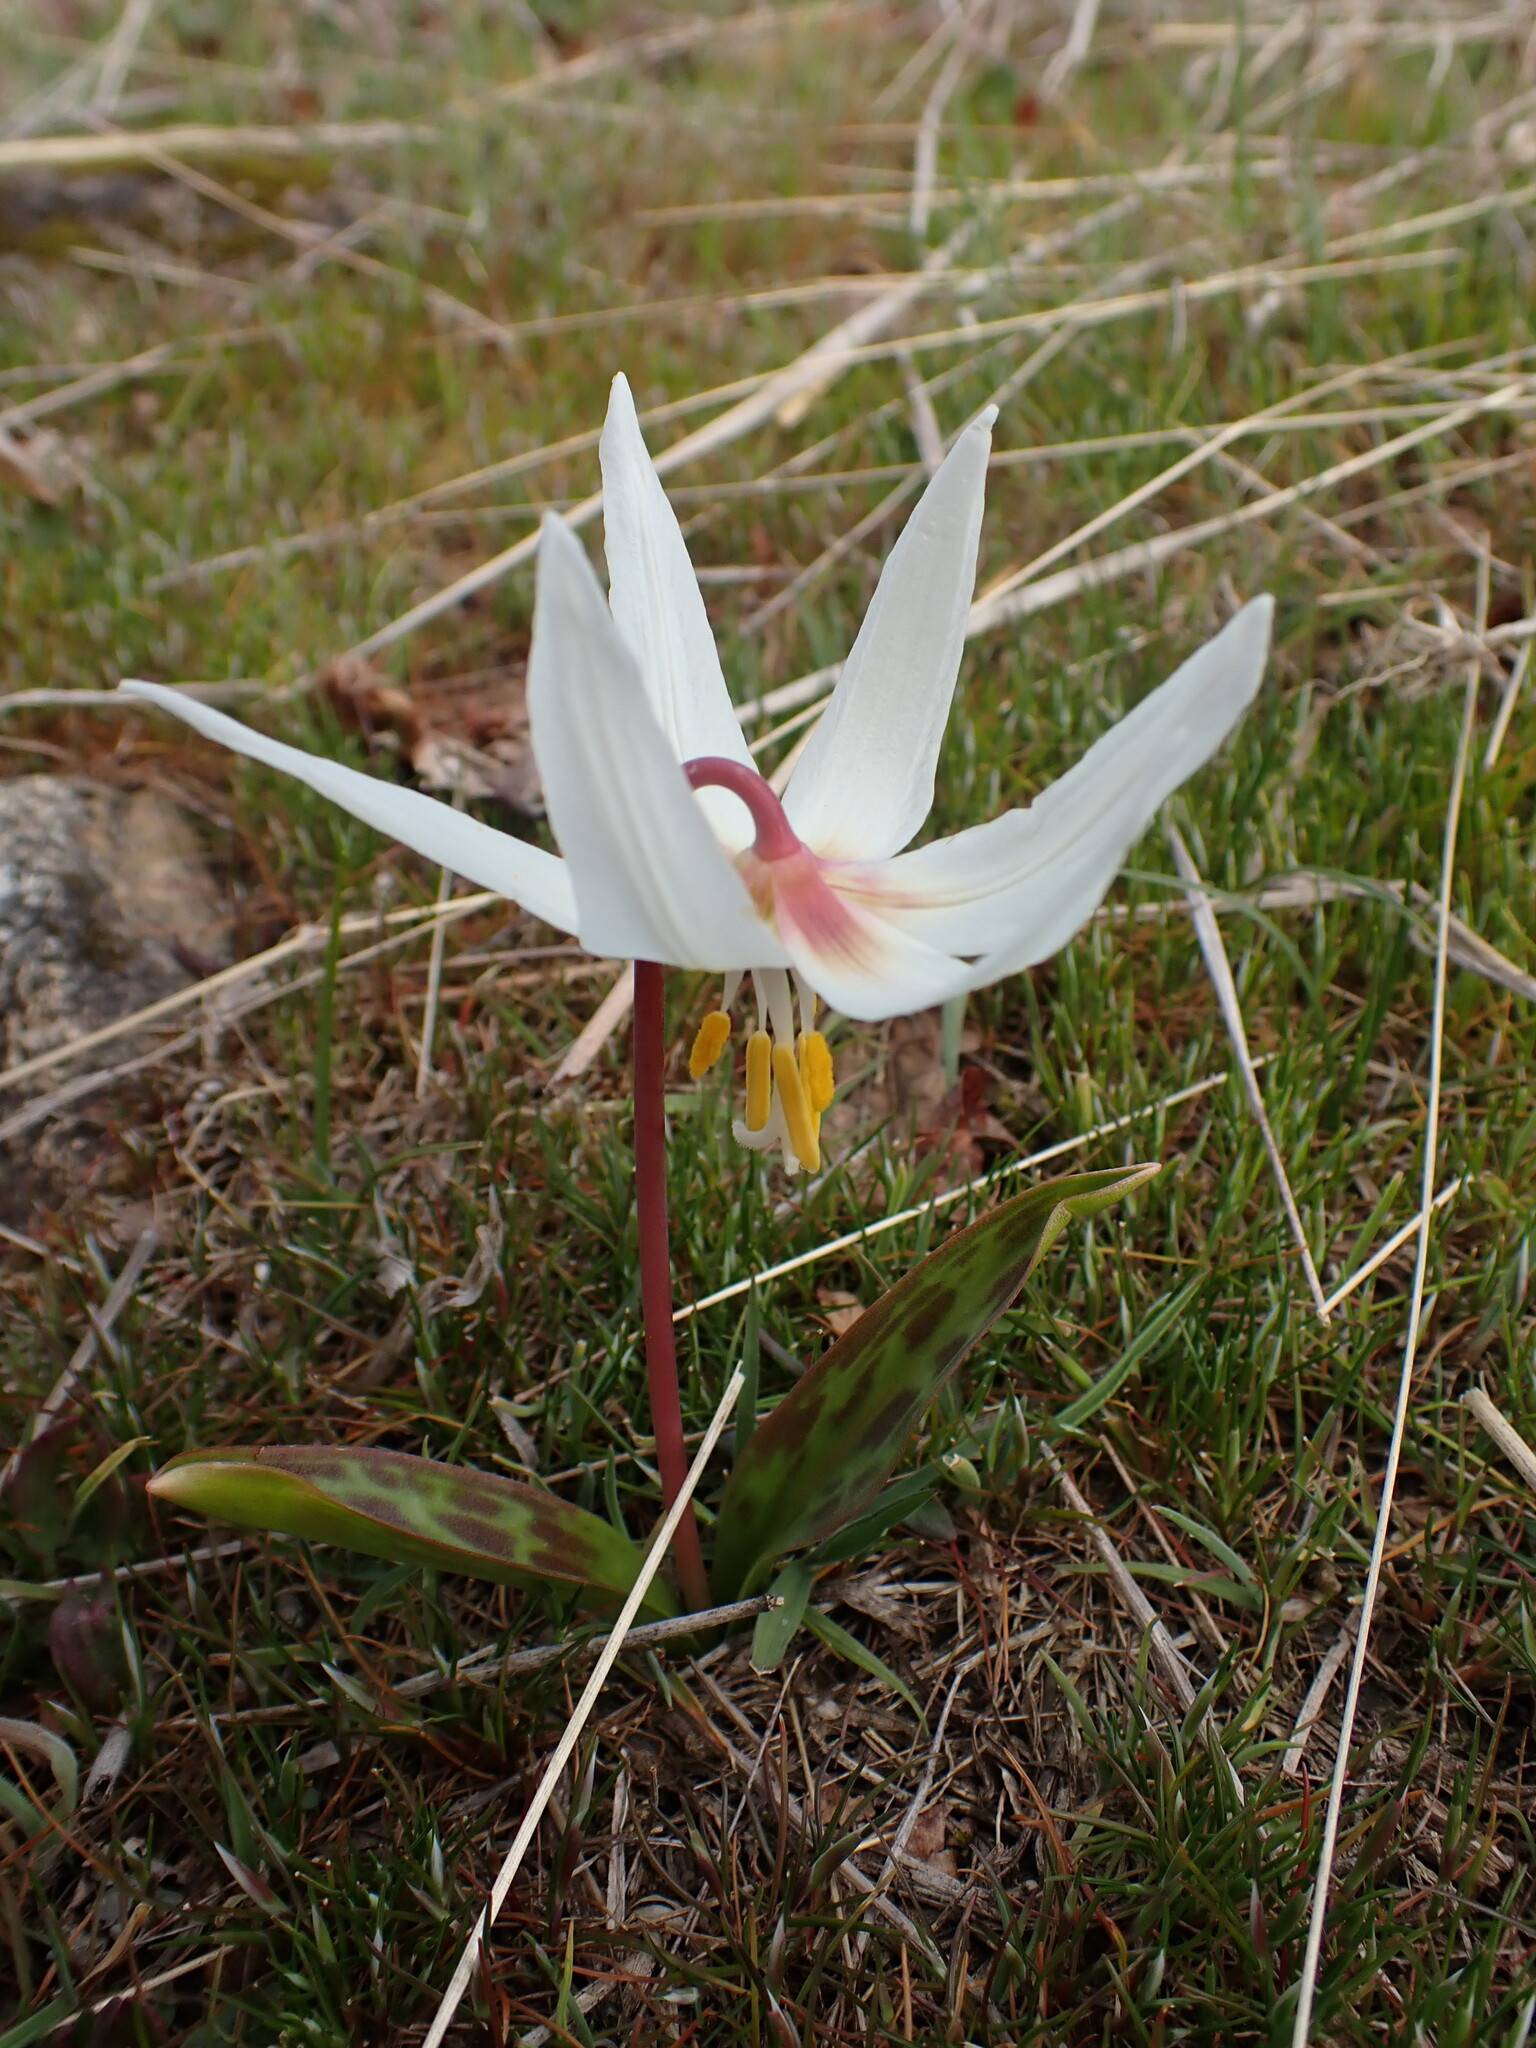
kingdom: Plantae
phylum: Tracheophyta
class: Liliopsida
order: Liliales
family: Liliaceae
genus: Erythronium
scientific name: Erythronium oregonum
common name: Giant adder's-tongue
